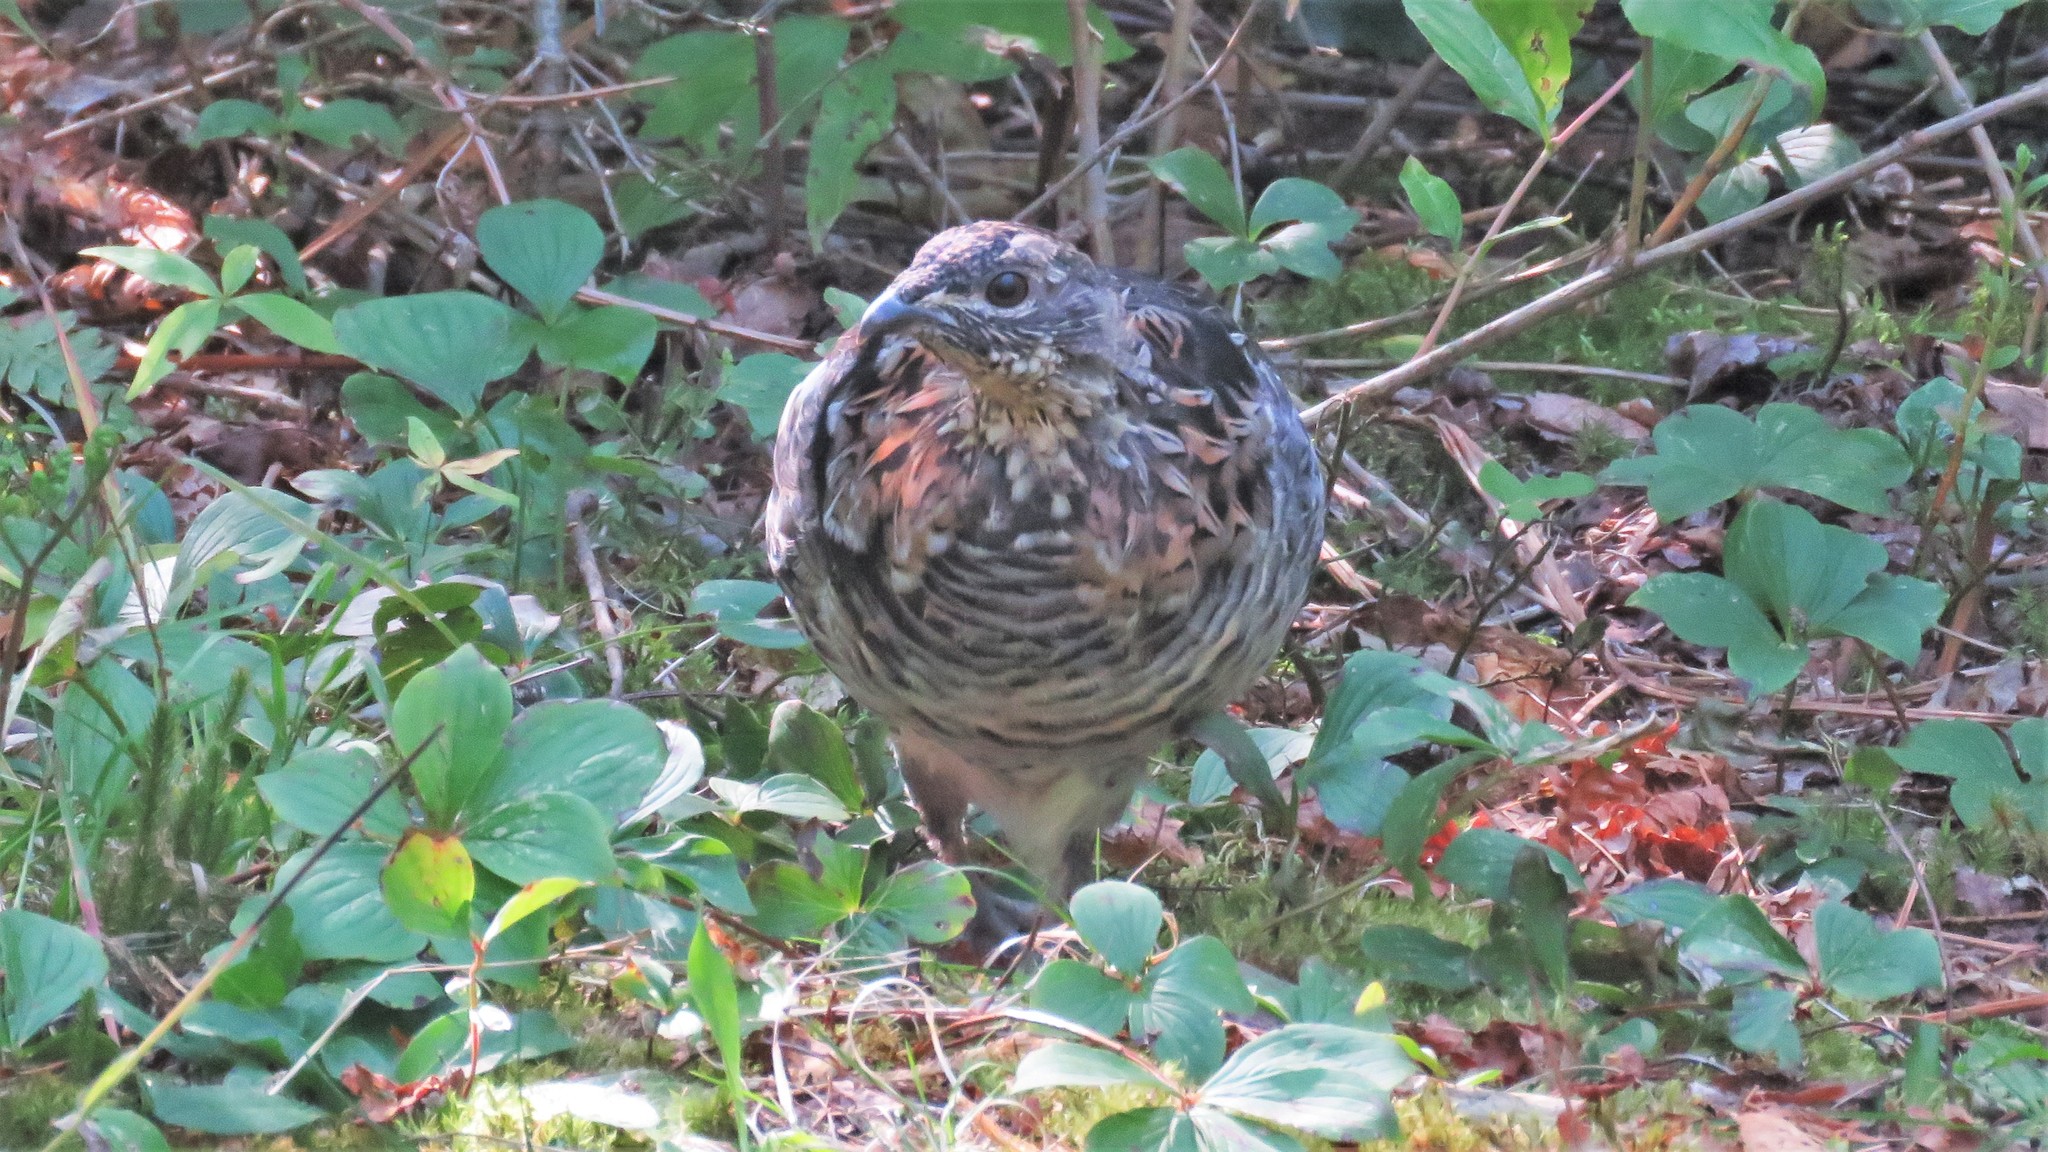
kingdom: Animalia
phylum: Chordata
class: Aves
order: Galliformes
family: Phasianidae
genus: Bonasa
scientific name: Bonasa umbellus
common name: Ruffed grouse
